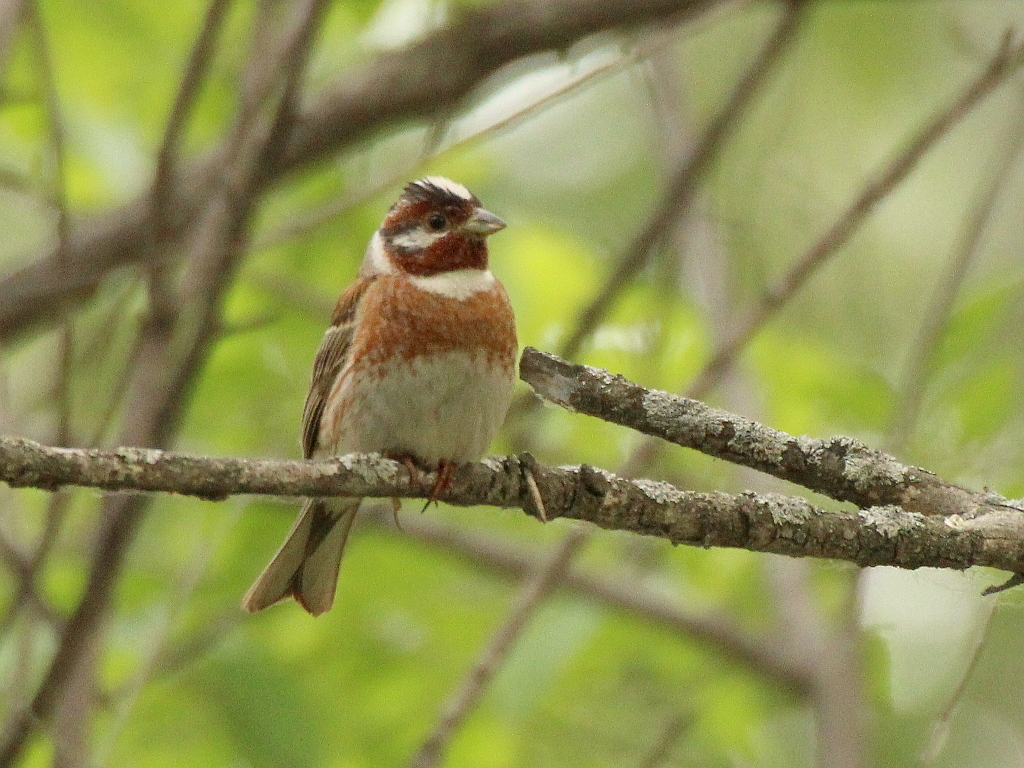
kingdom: Animalia
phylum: Chordata
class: Aves
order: Passeriformes
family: Emberizidae
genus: Emberiza
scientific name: Emberiza leucocephalos
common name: Pine bunting
